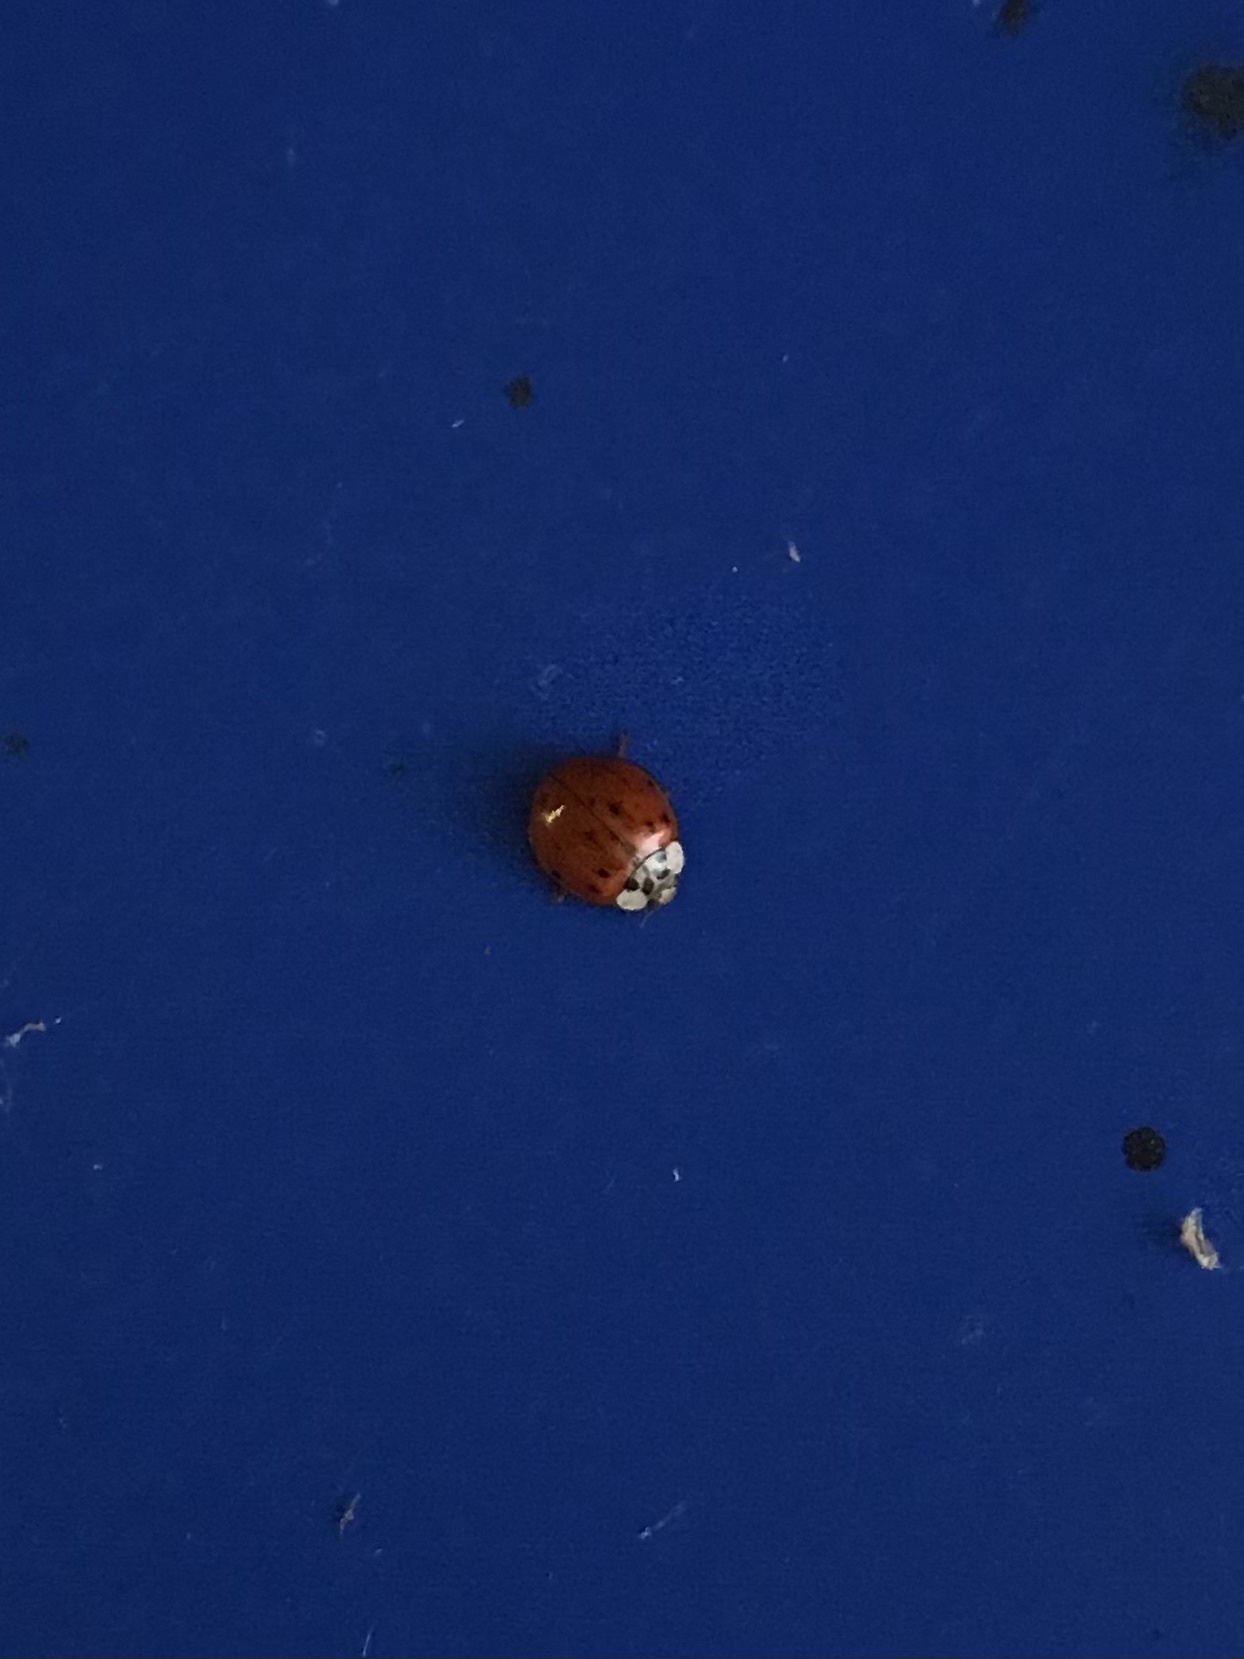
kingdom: Animalia
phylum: Arthropoda
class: Insecta
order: Coleoptera
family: Coccinellidae
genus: Harmonia
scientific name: Harmonia axyridis
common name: Harlequin ladybird
